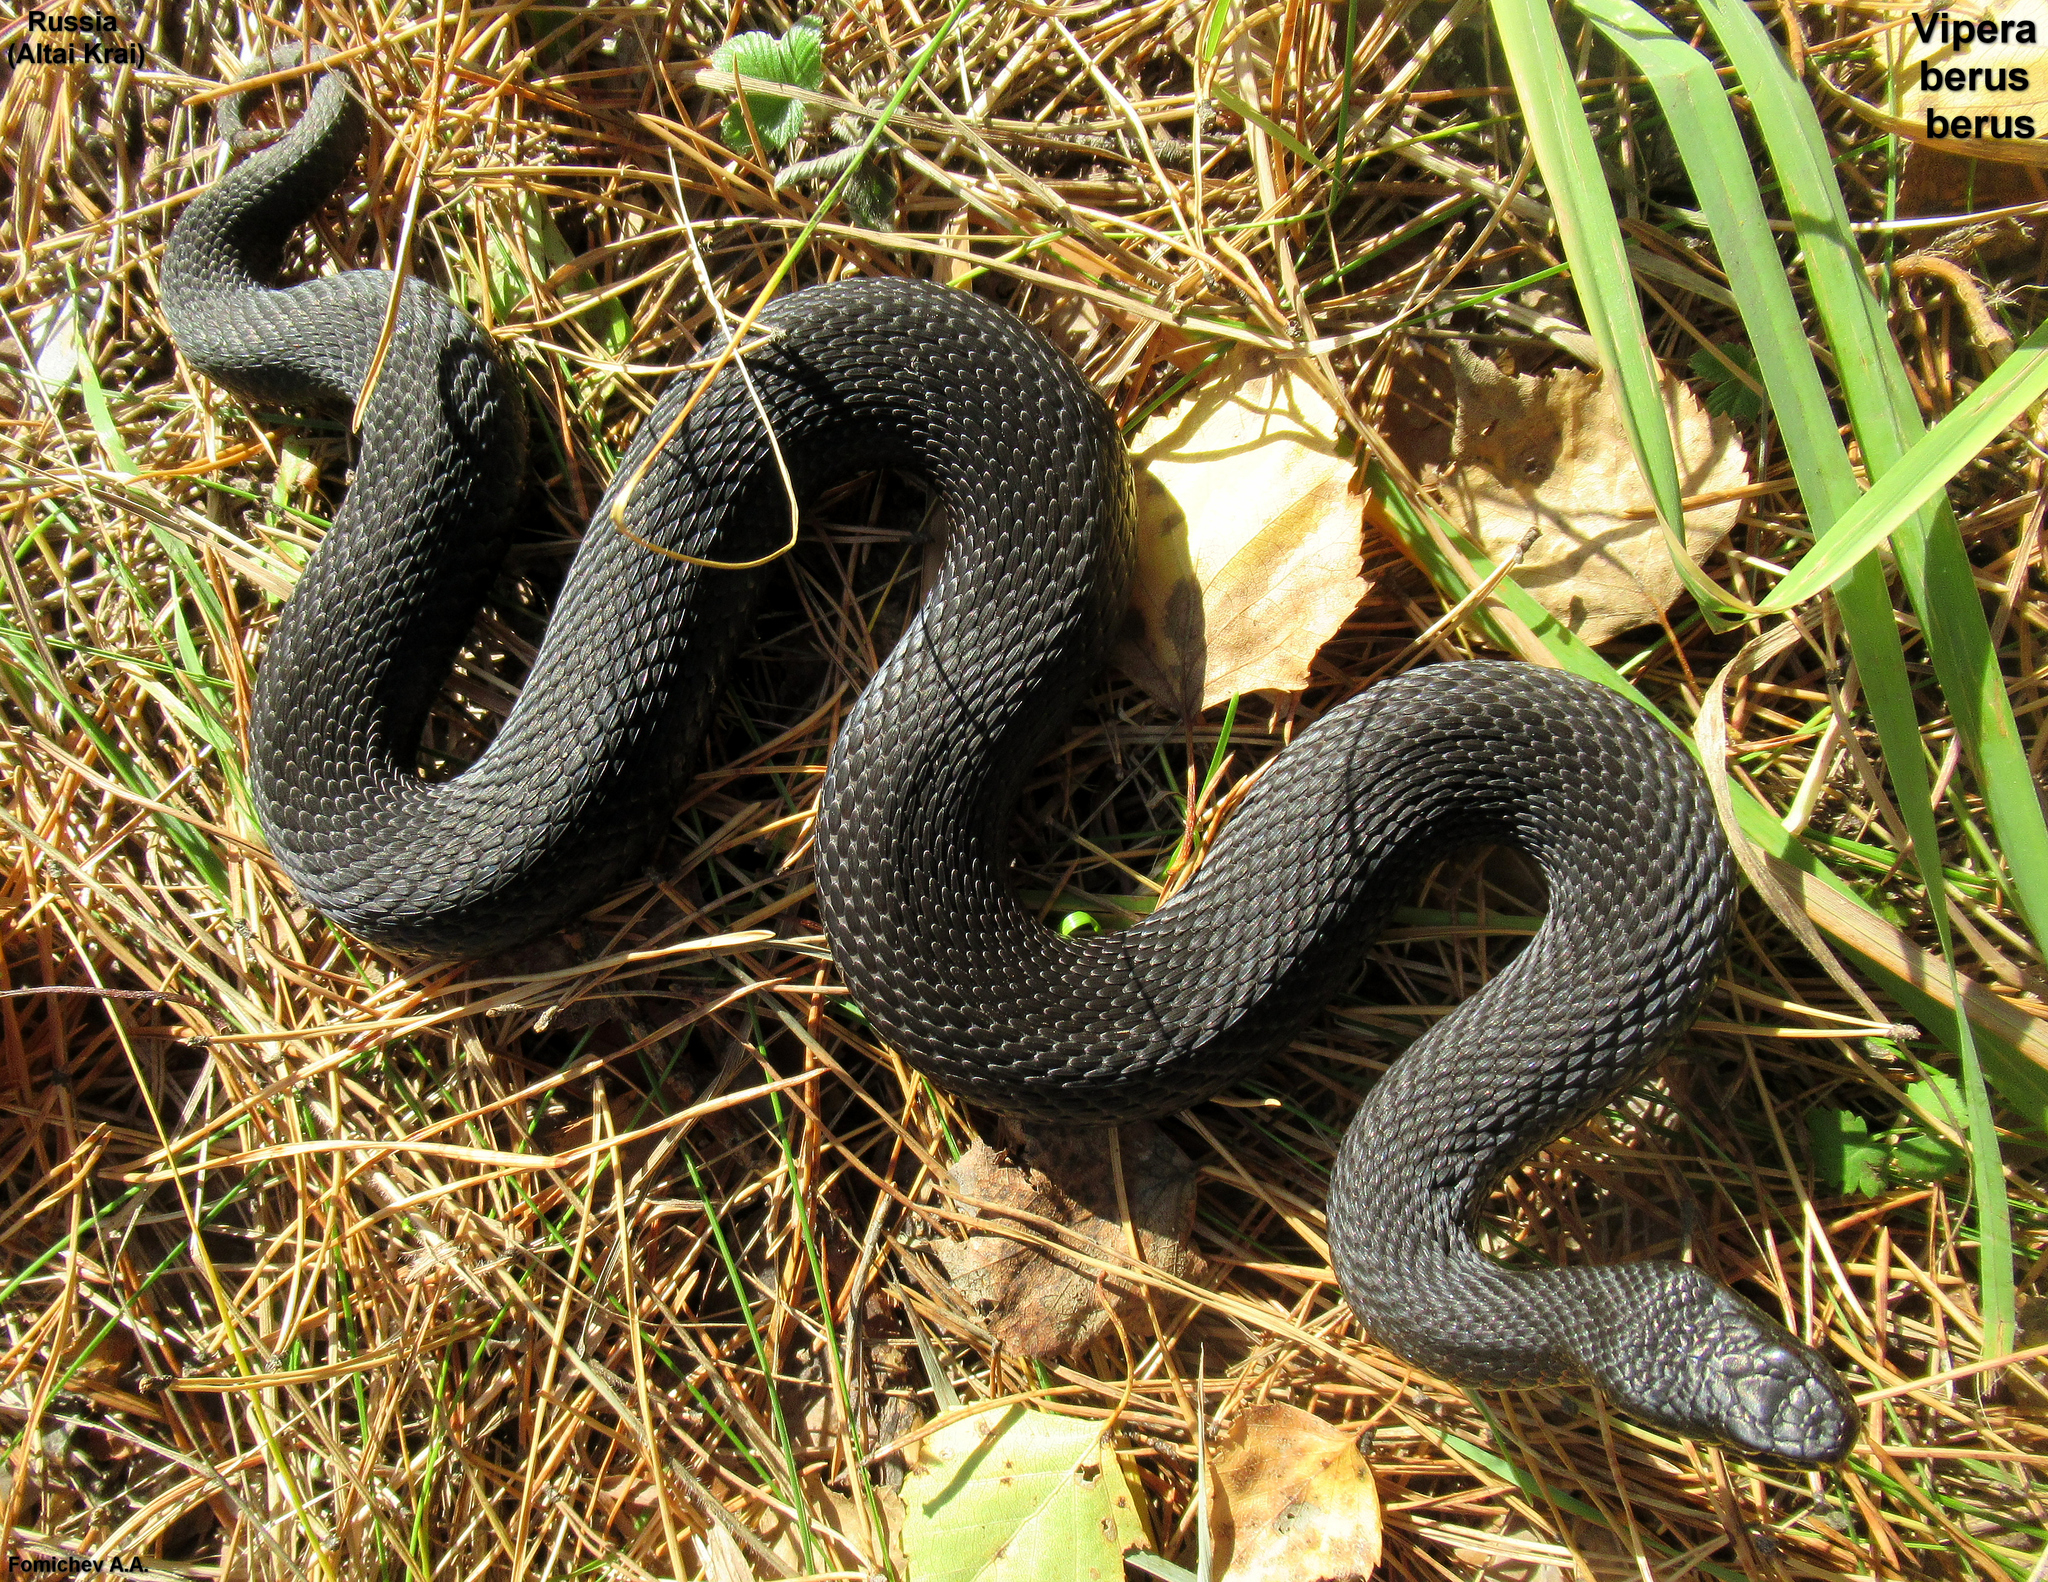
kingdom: Animalia
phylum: Chordata
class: Squamata
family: Viperidae
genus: Vipera
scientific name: Vipera berus
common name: Adder
